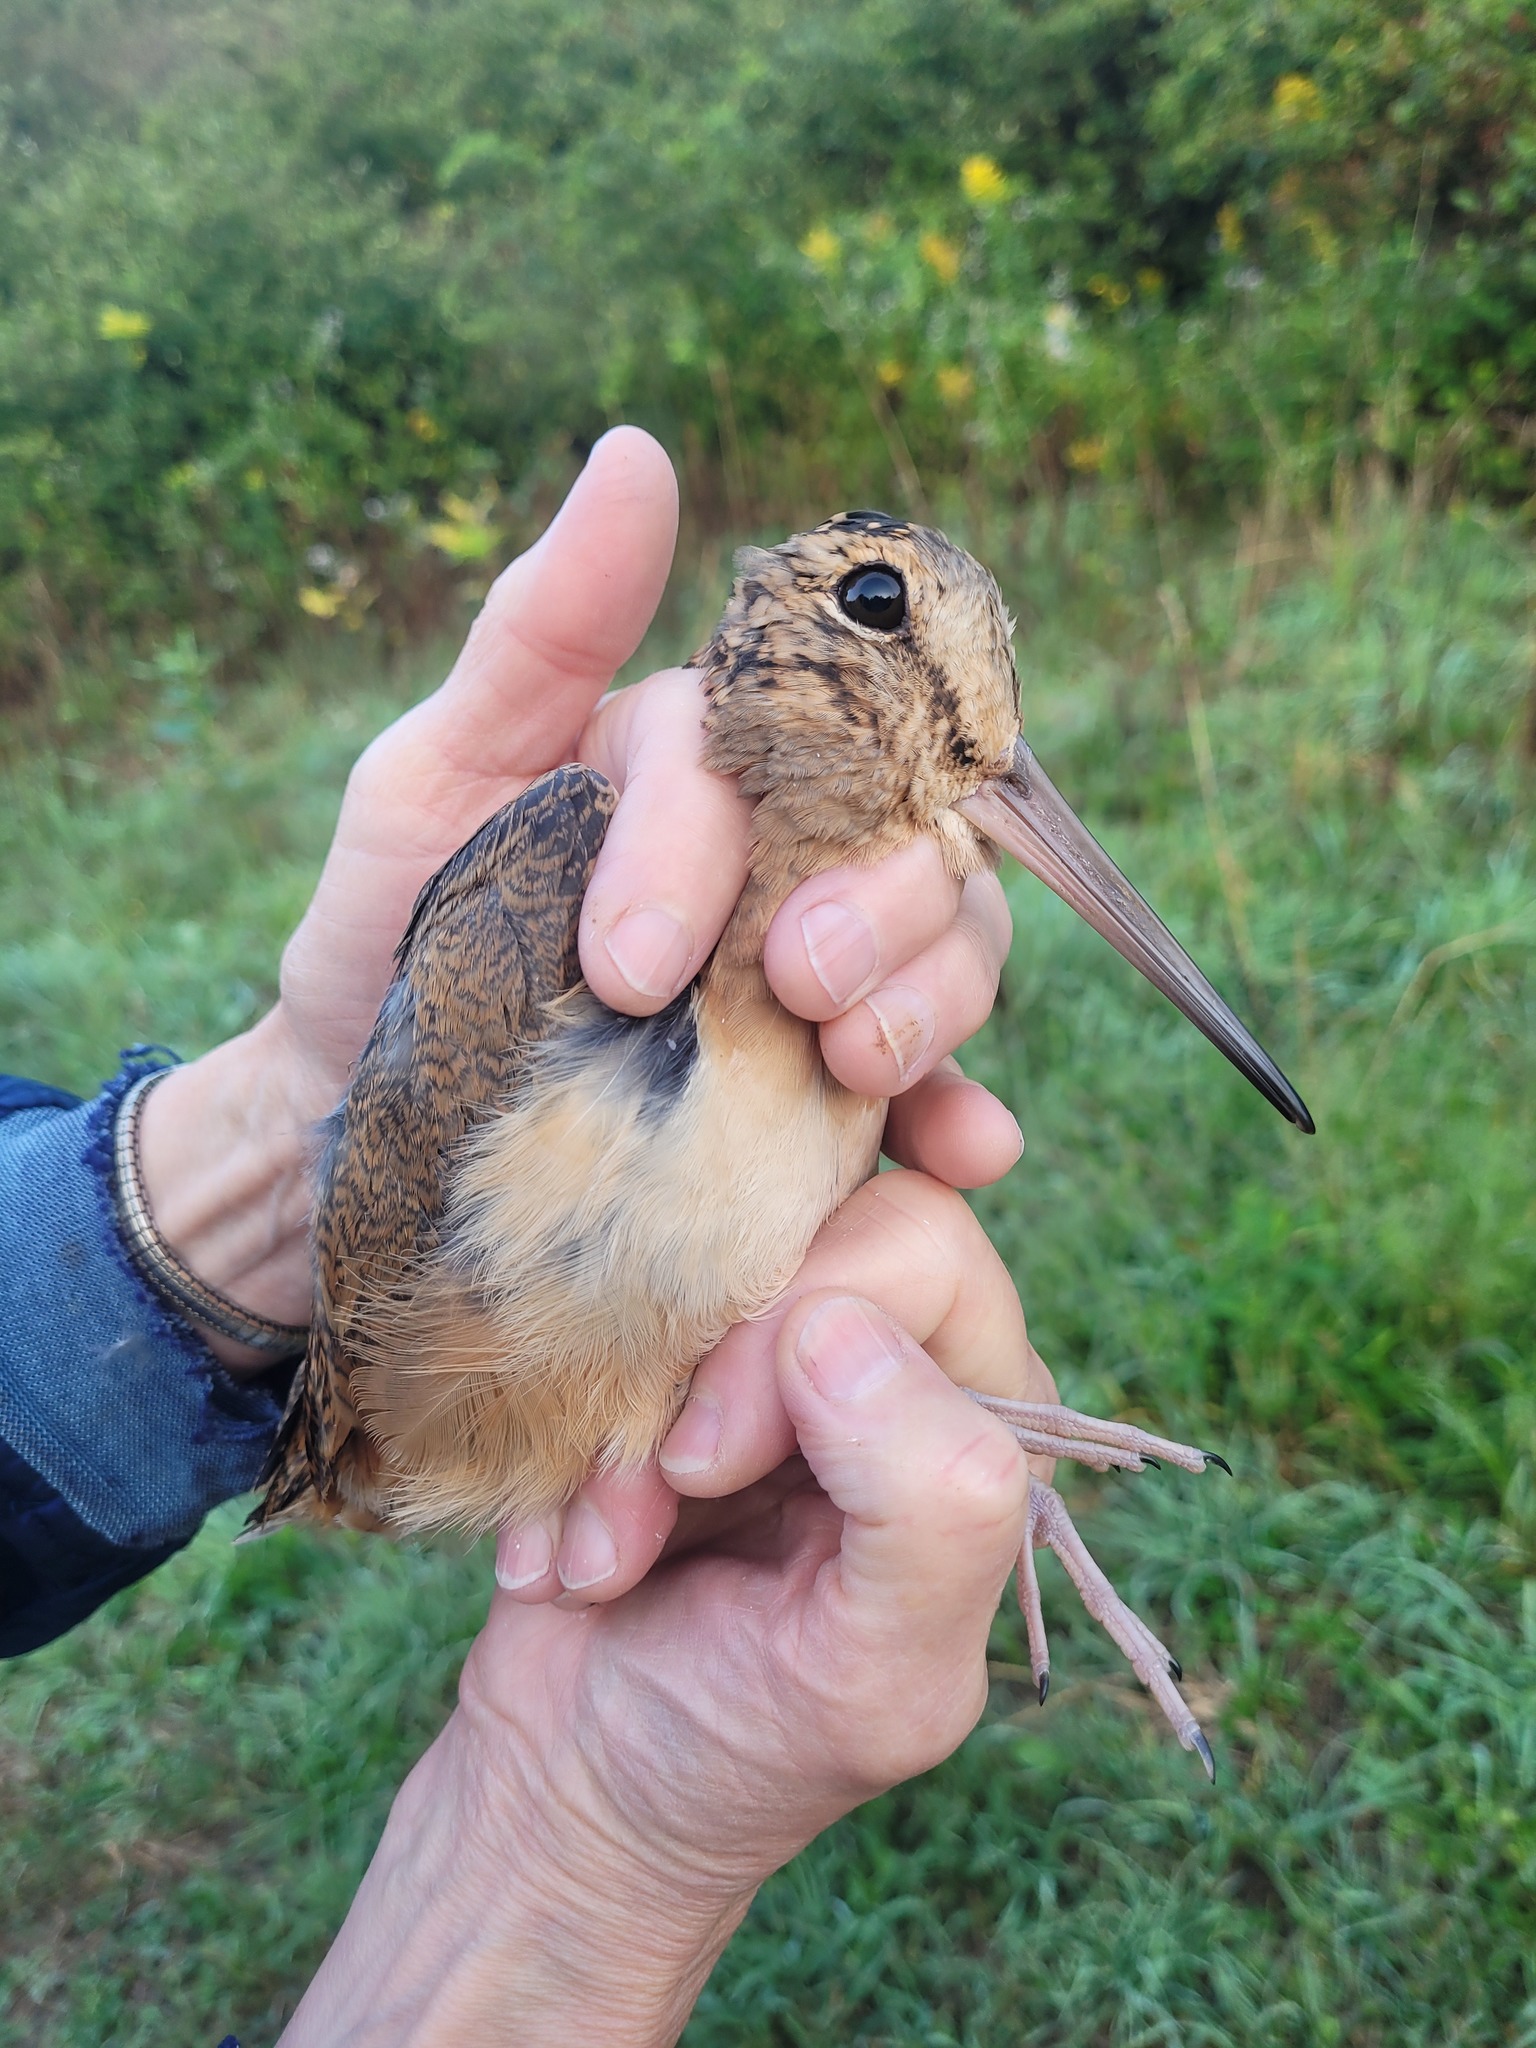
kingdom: Animalia
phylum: Chordata
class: Aves
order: Charadriiformes
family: Scolopacidae
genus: Scolopax
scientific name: Scolopax minor
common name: American woodcock
